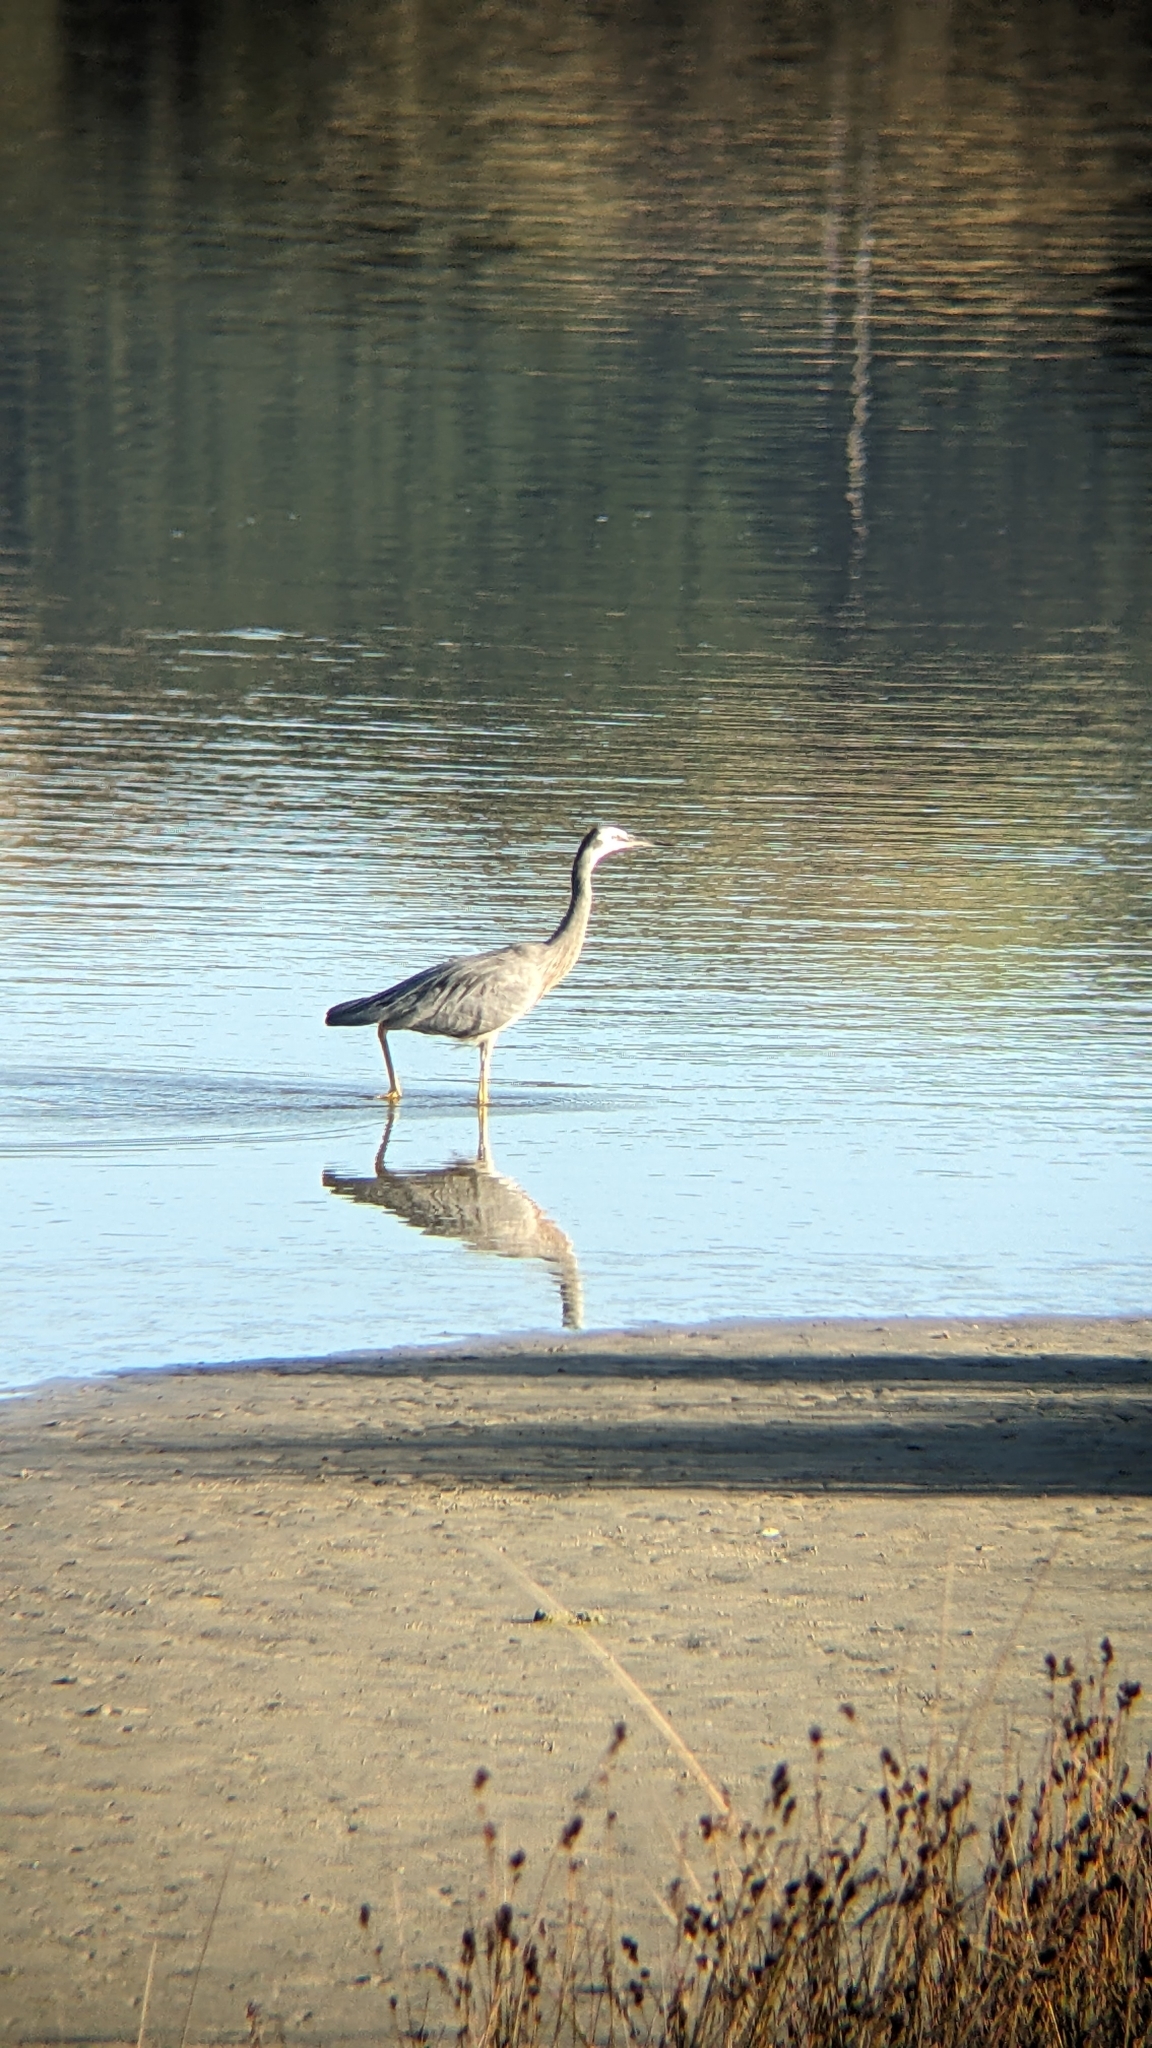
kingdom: Animalia
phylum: Chordata
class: Aves
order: Pelecaniformes
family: Ardeidae
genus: Egretta
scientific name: Egretta novaehollandiae
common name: White-faced heron
